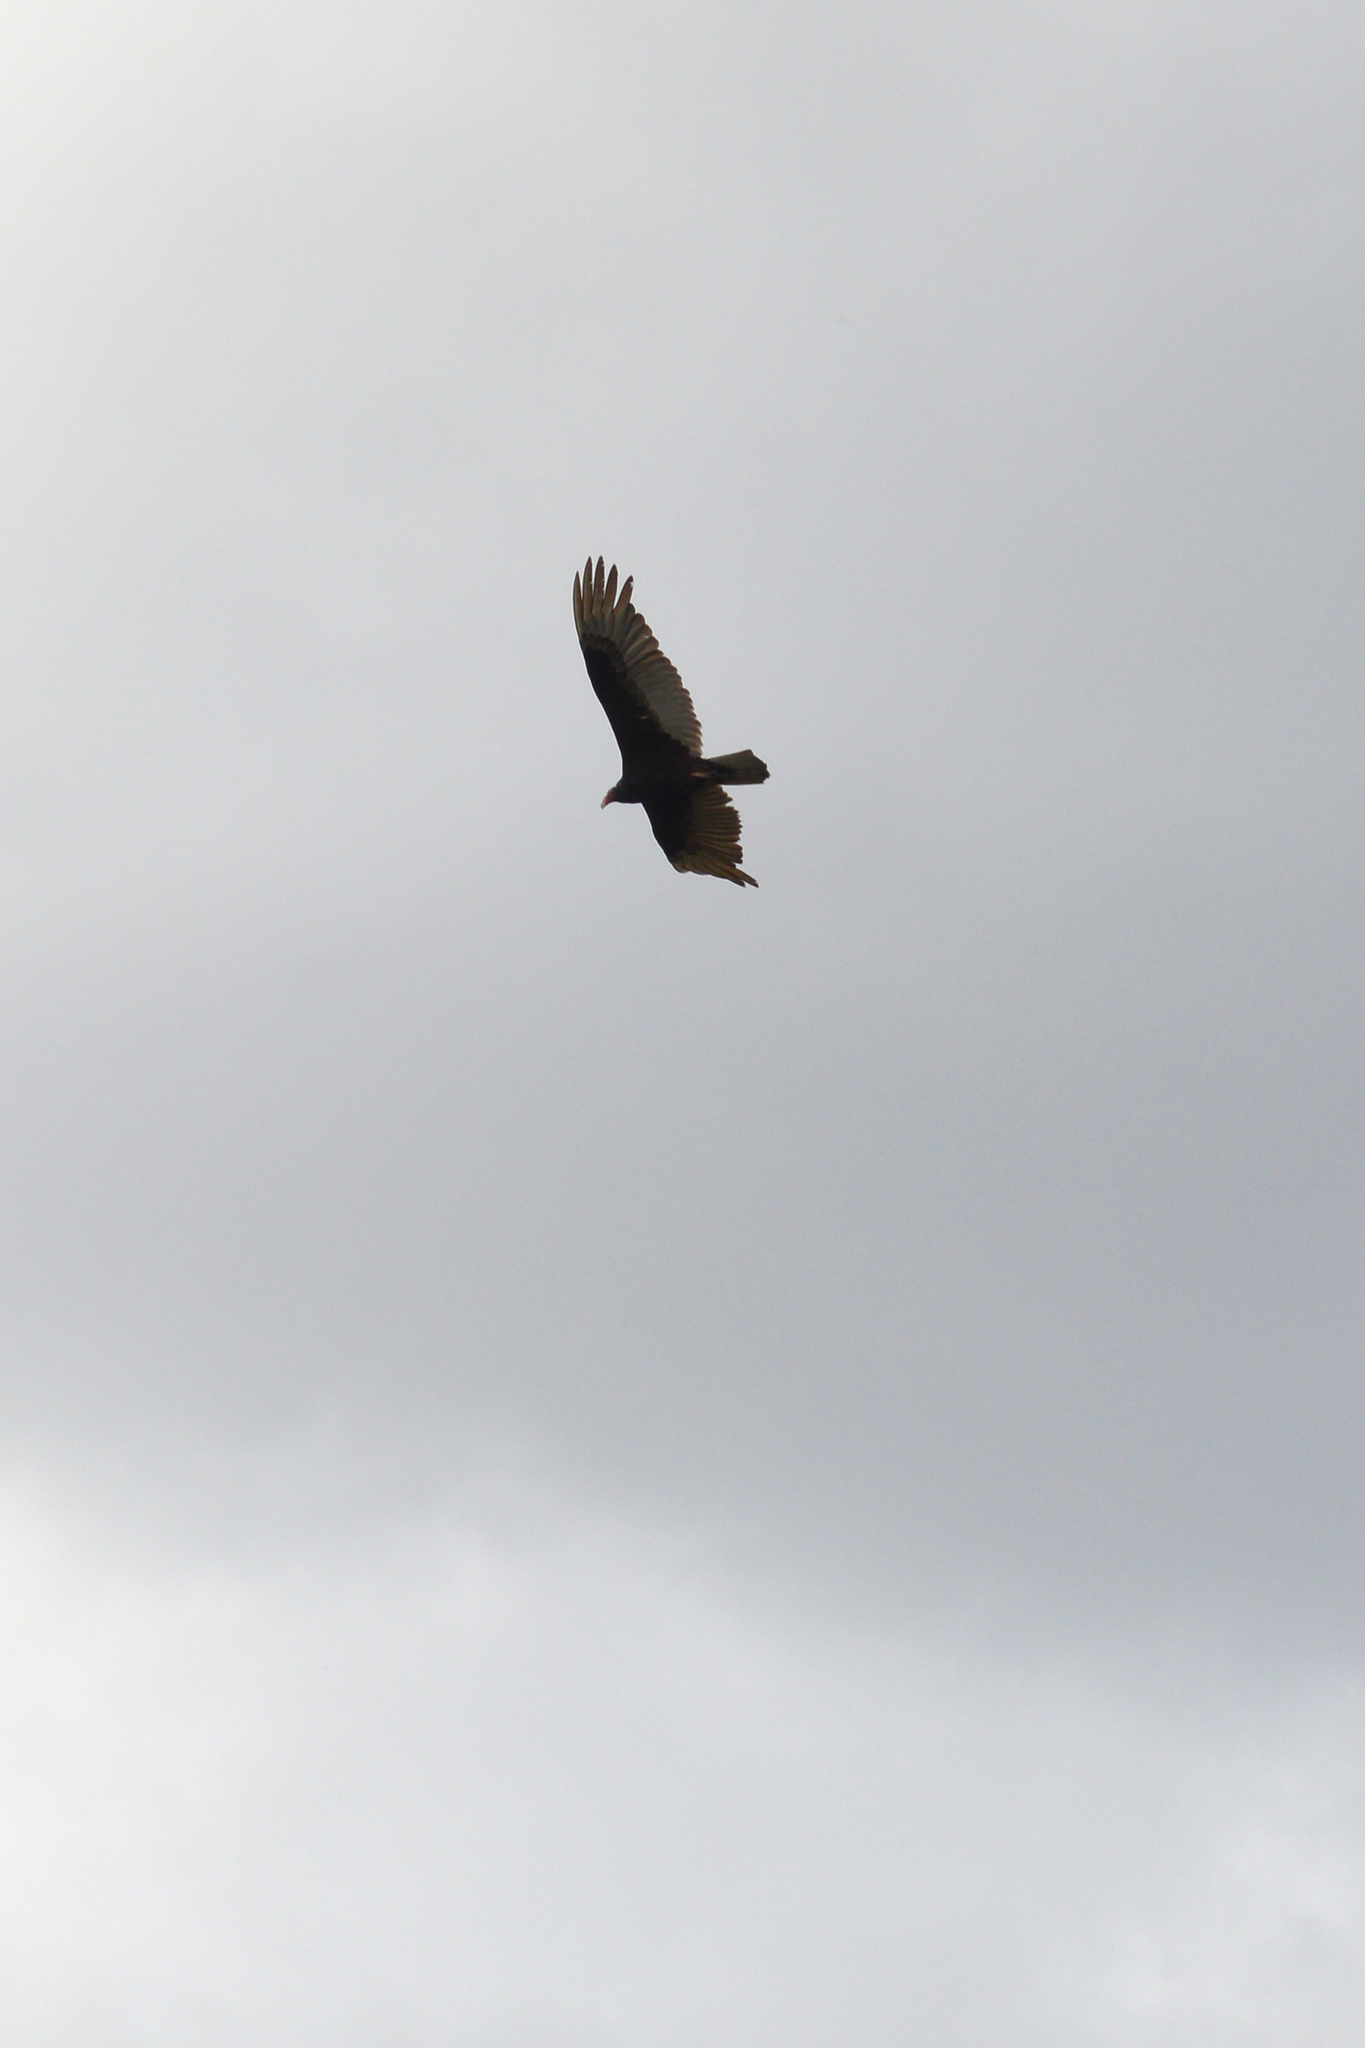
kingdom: Animalia
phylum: Chordata
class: Aves
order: Accipitriformes
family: Cathartidae
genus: Cathartes
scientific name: Cathartes aura
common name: Turkey vulture
